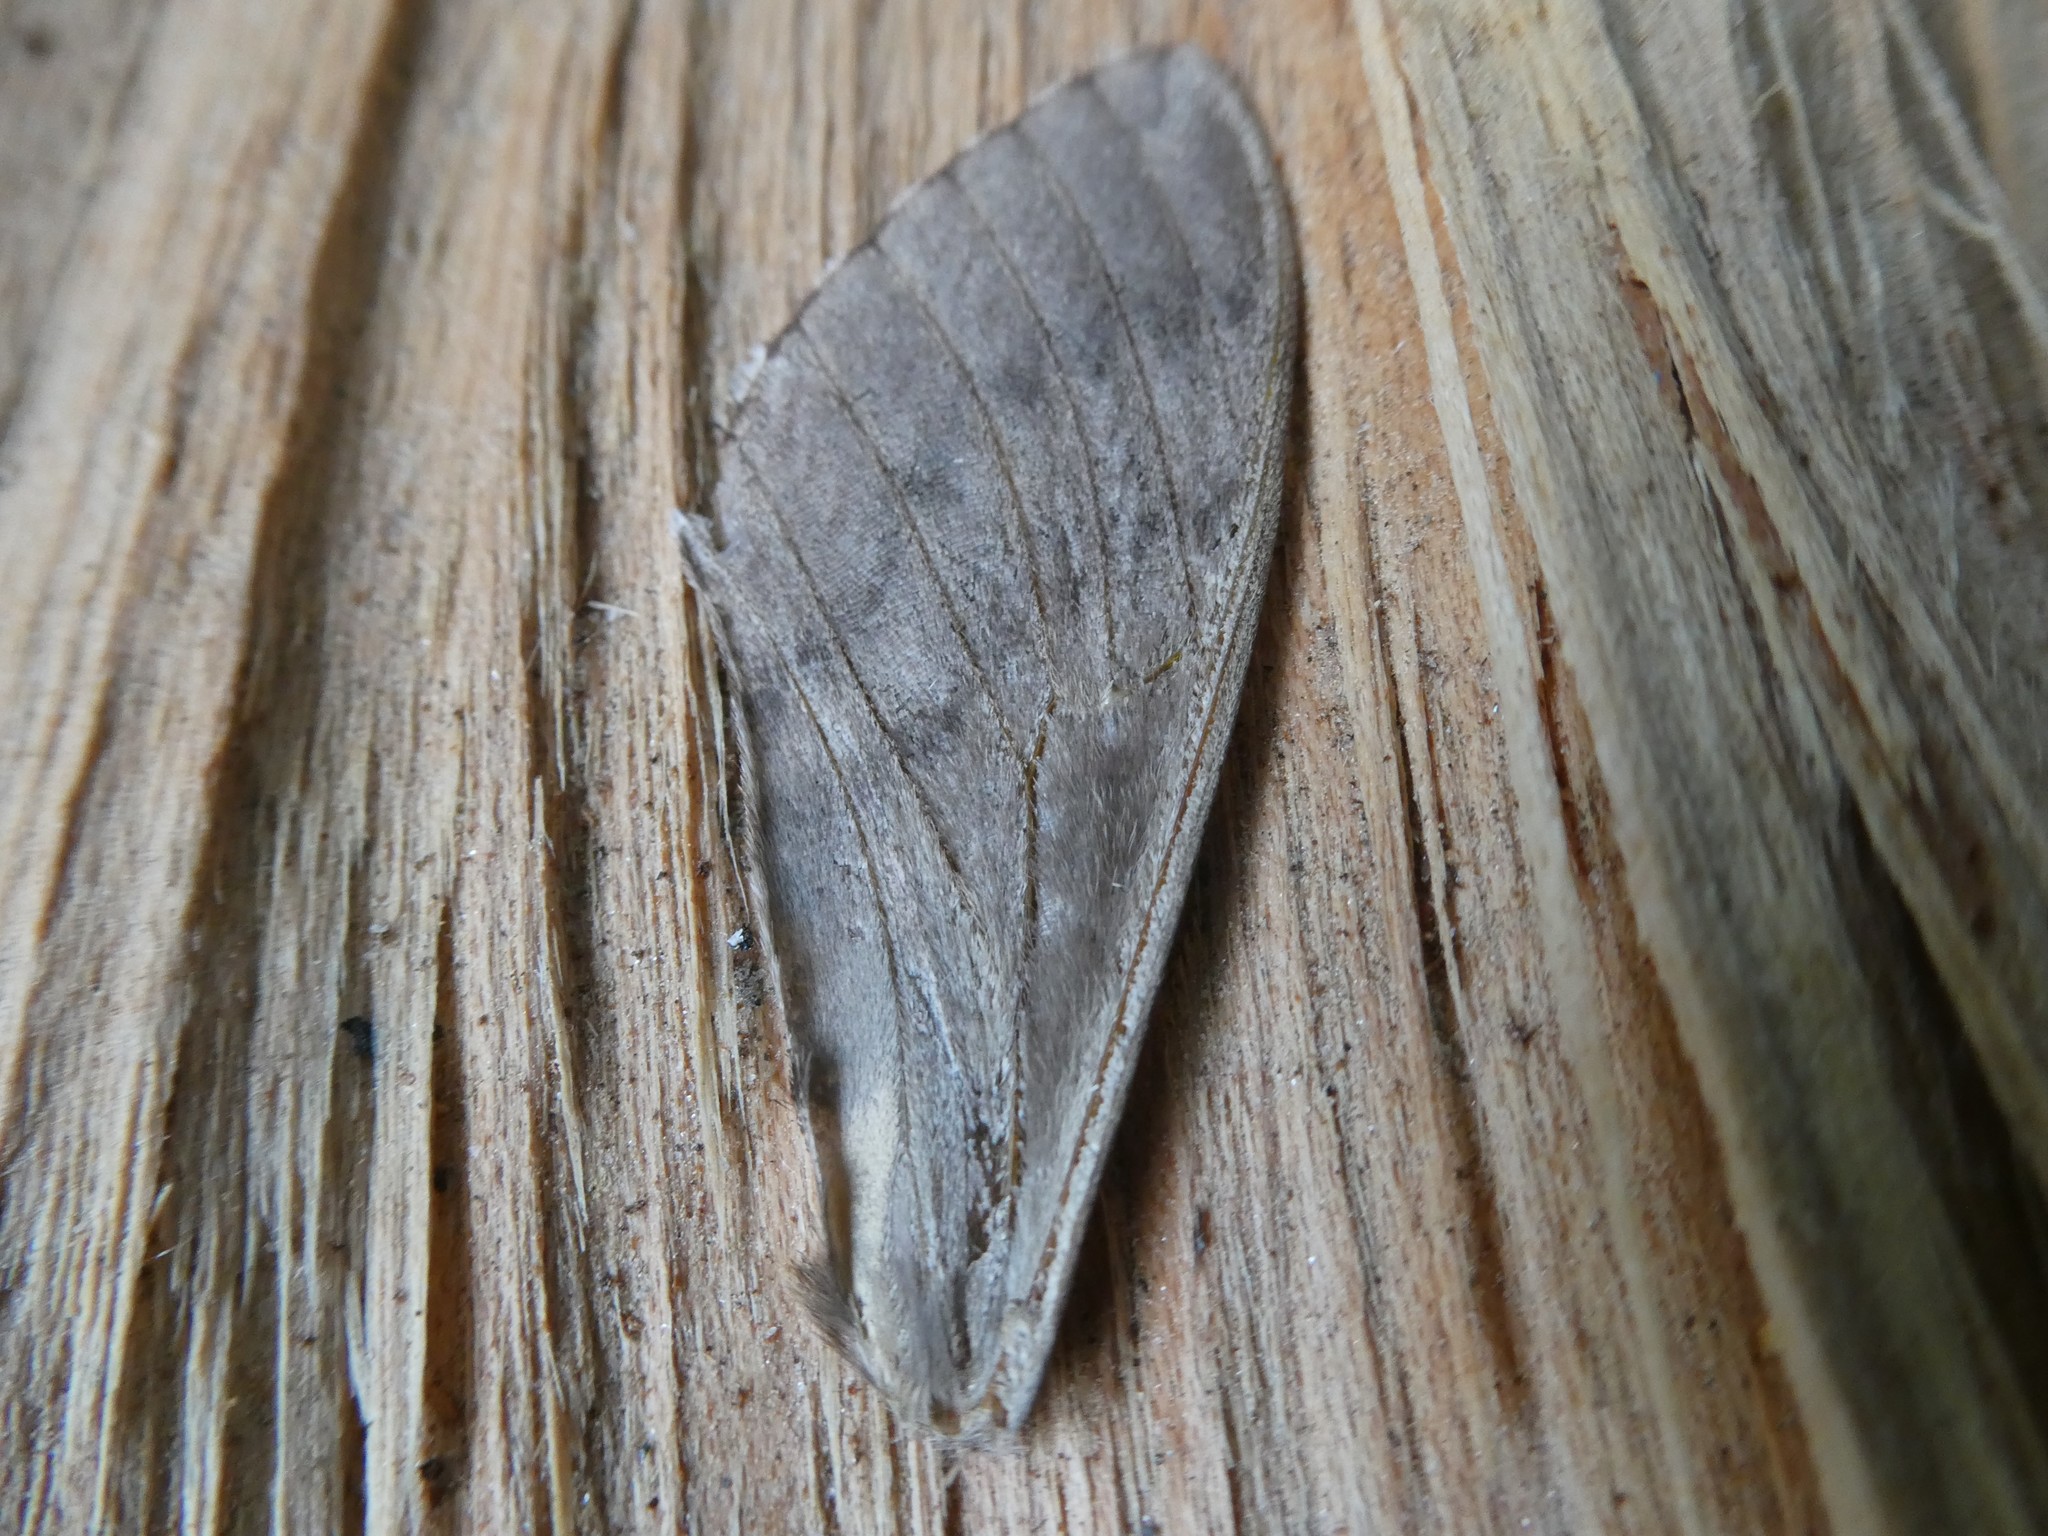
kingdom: Animalia
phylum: Arthropoda
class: Insecta
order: Lepidoptera
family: Sphingidae
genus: Ceratomia
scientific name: Ceratomia undulosa
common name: Waved sphinx
